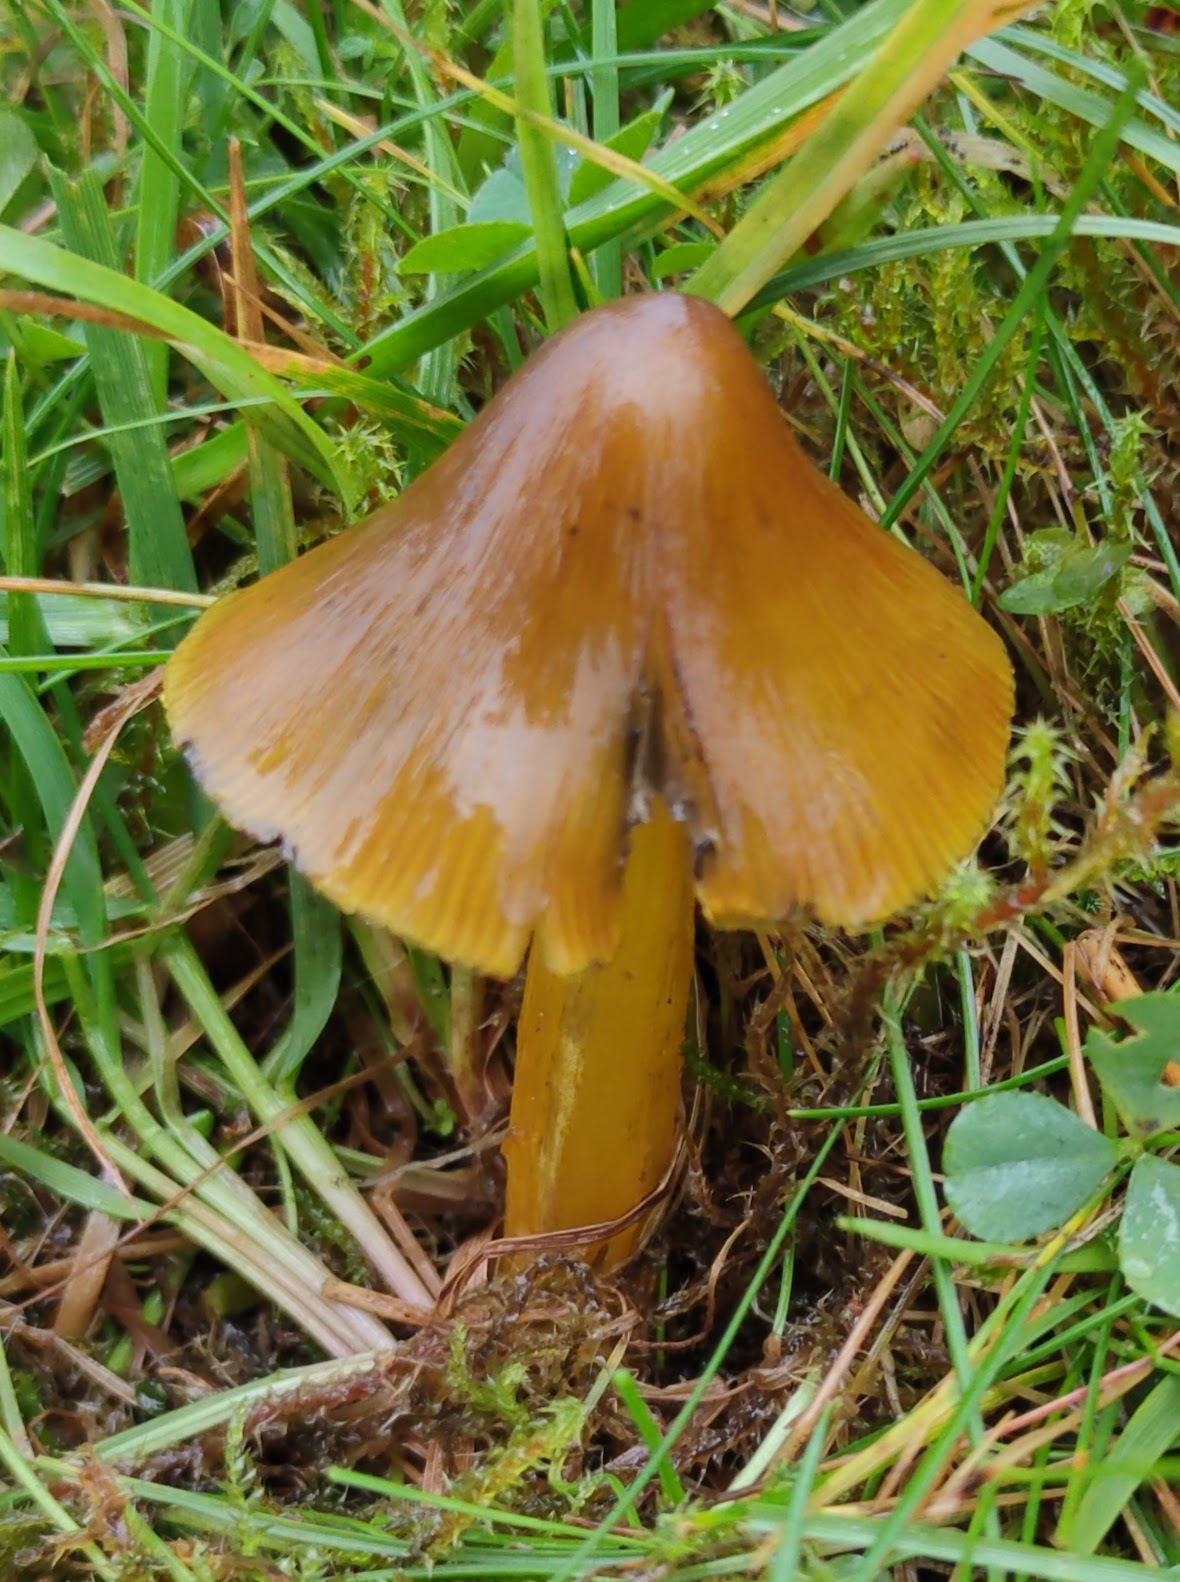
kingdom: Fungi
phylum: Basidiomycota
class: Agaricomycetes
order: Agaricales
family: Hygrophoraceae
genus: Hygrocybe
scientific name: Hygrocybe conica
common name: Blackening wax-cap
